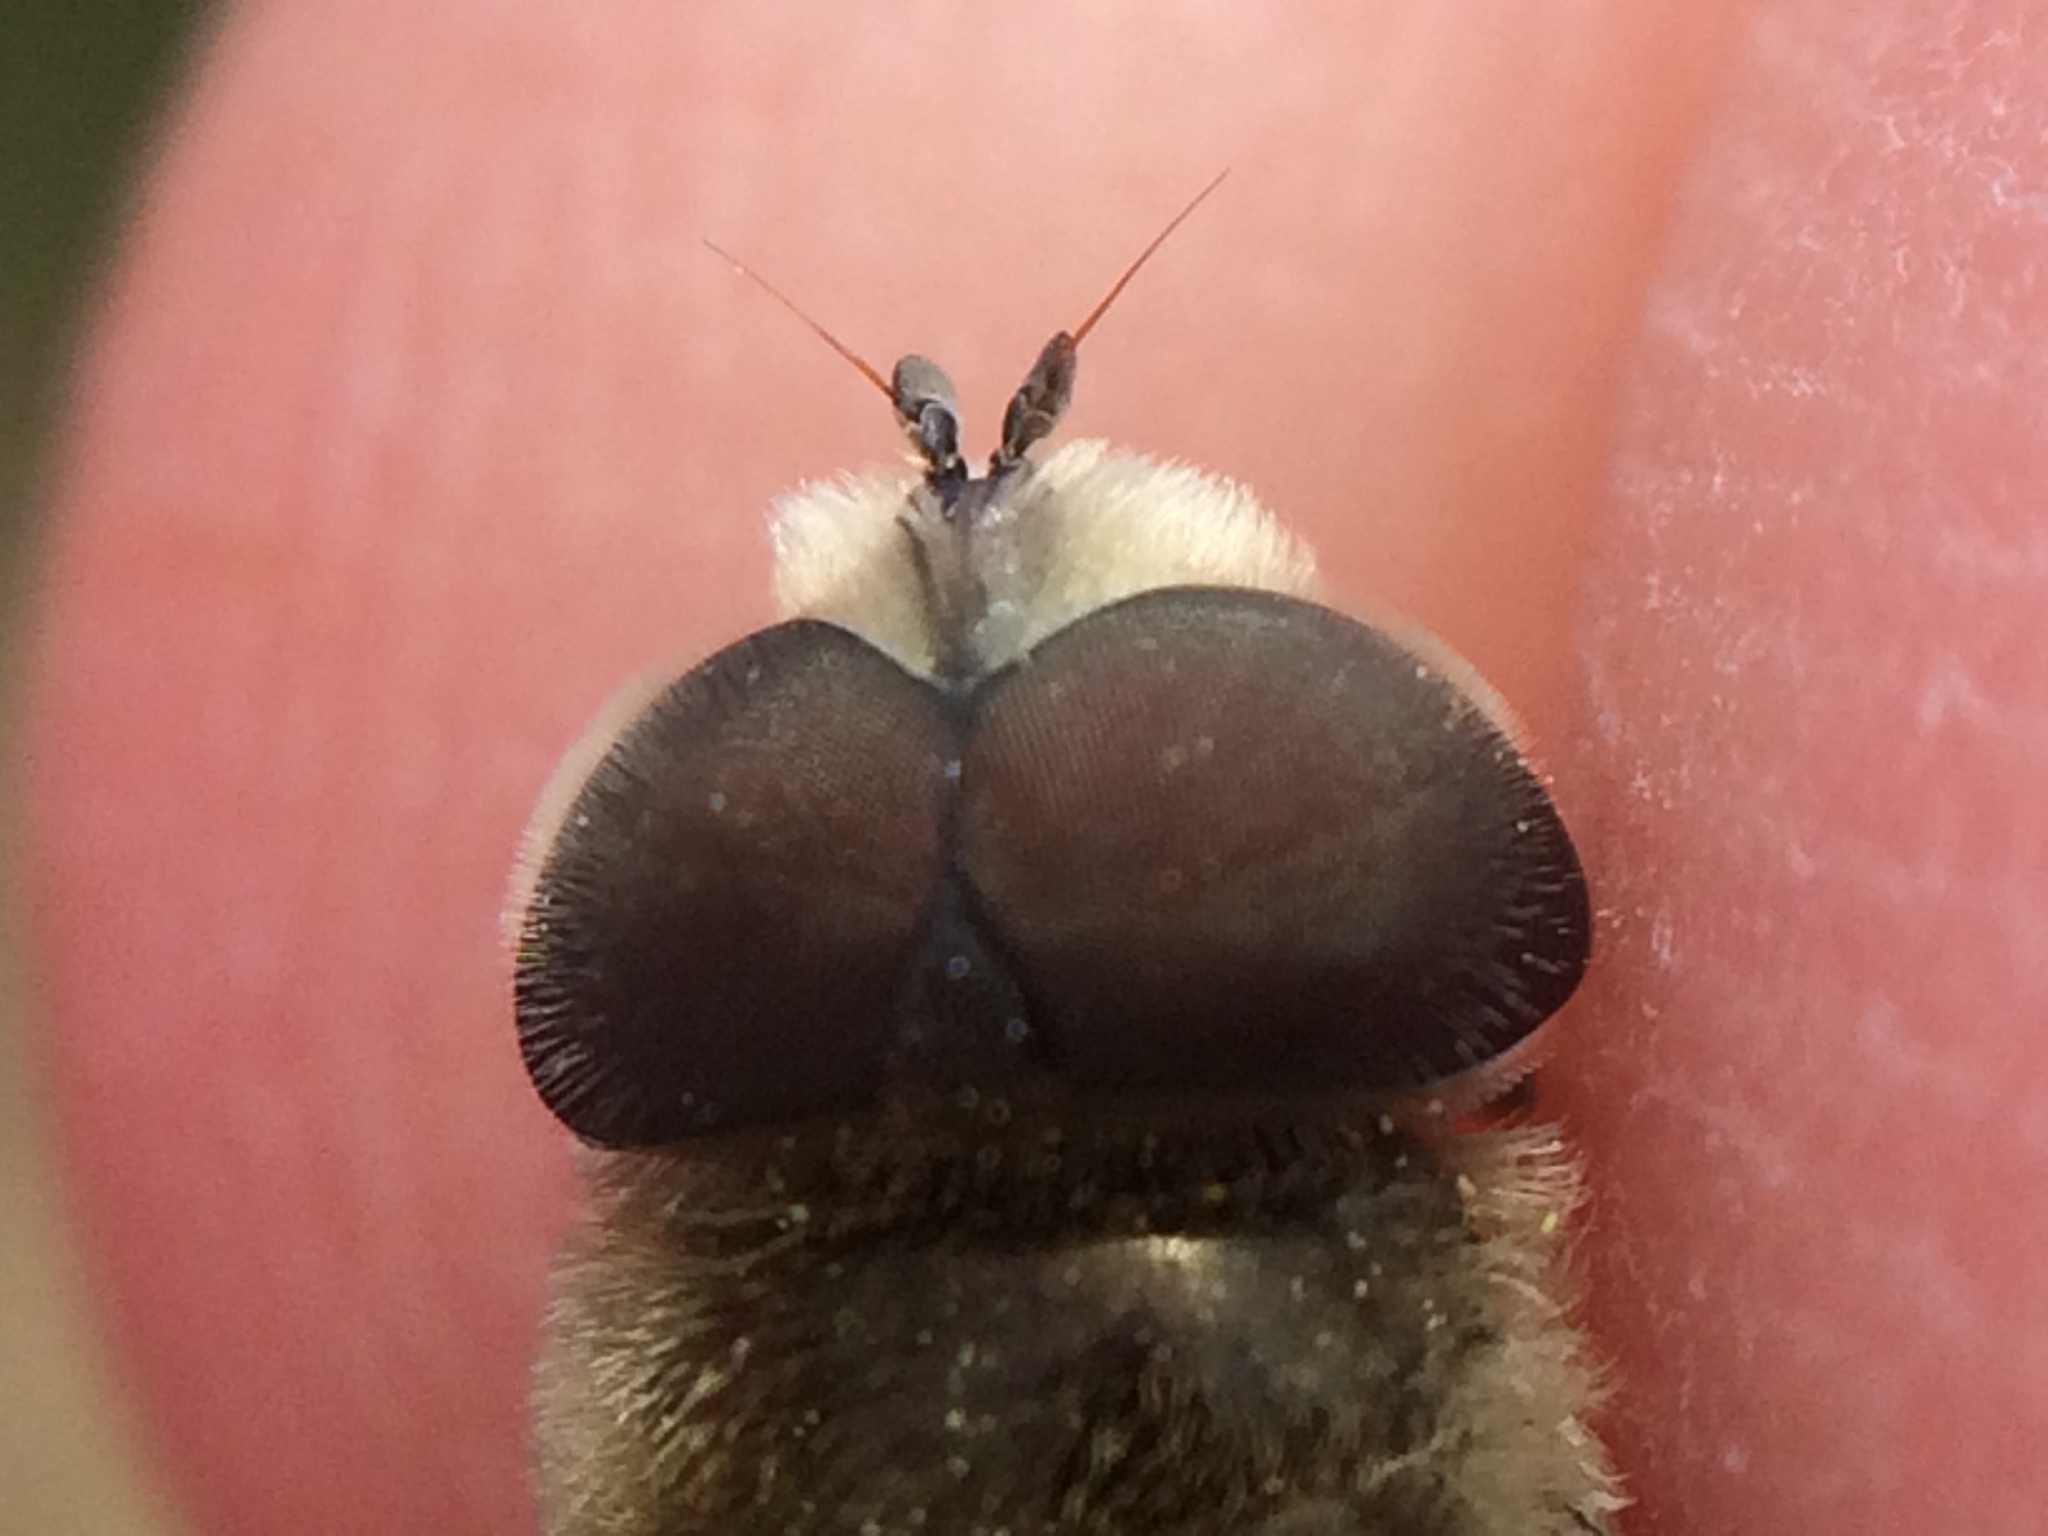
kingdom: Animalia
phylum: Arthropoda
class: Insecta
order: Diptera
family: Syrphidae
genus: Eristalis
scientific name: Eristalis stipator
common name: Yellow-shouldered drone fly
